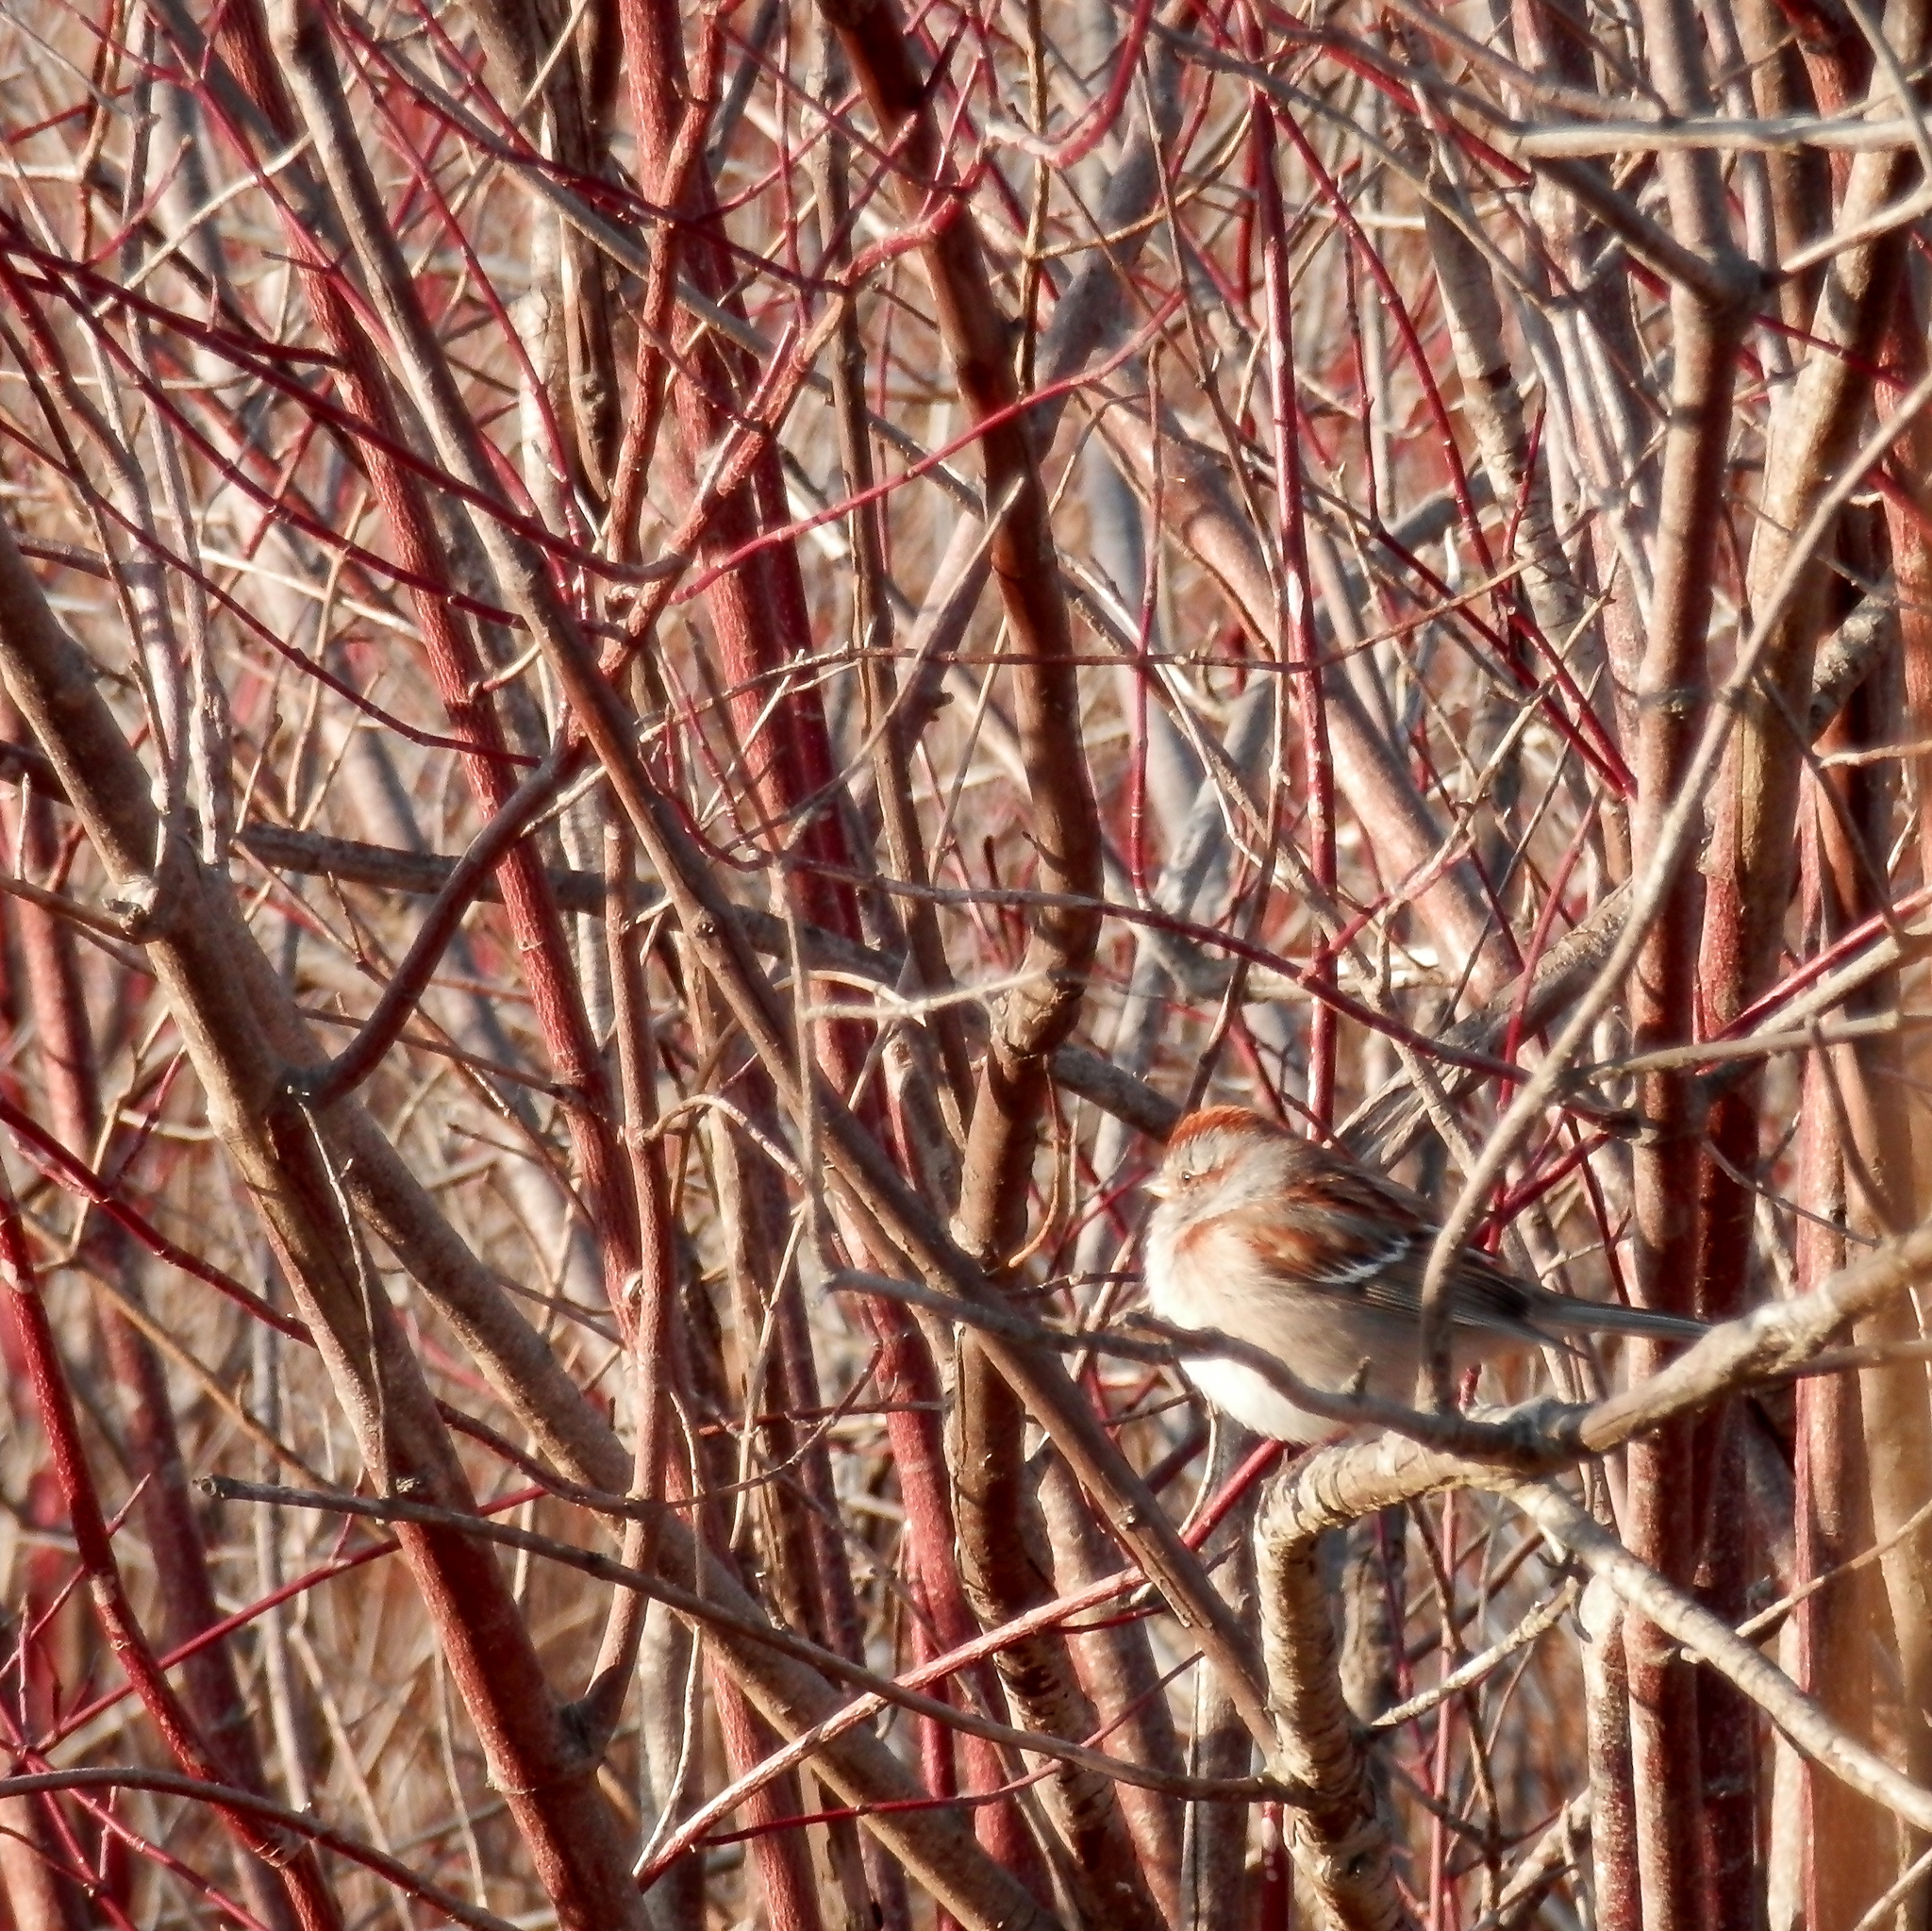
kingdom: Animalia
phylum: Chordata
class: Aves
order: Passeriformes
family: Passerellidae
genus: Spizelloides
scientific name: Spizelloides arborea
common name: American tree sparrow
